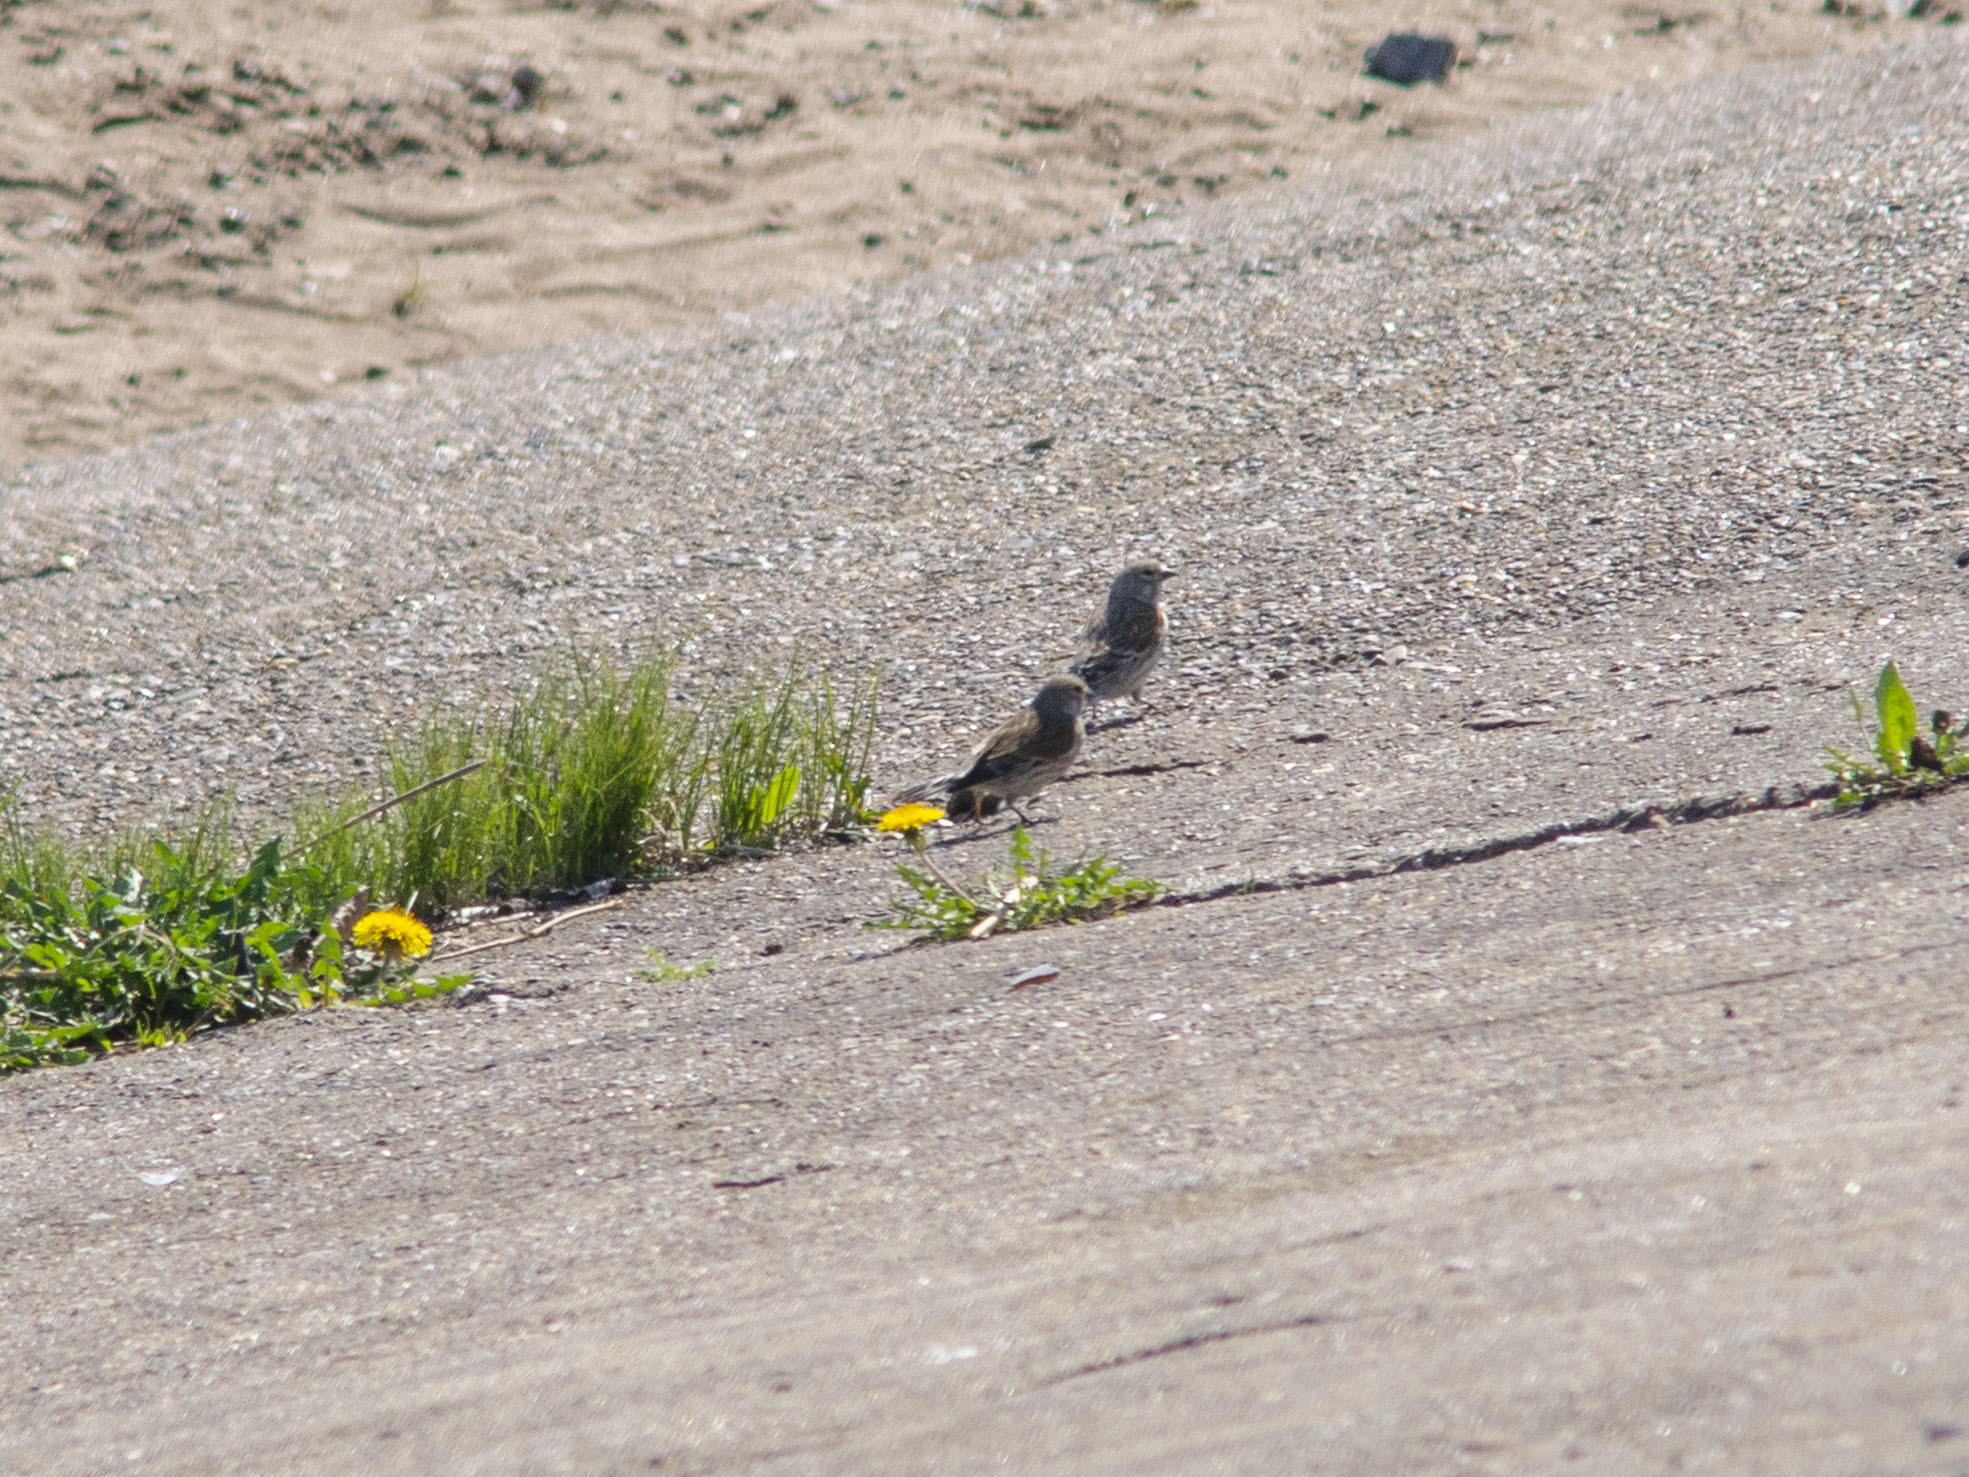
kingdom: Animalia
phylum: Chordata
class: Aves
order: Passeriformes
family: Fringillidae
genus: Linaria
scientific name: Linaria cannabina
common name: Common linnet
